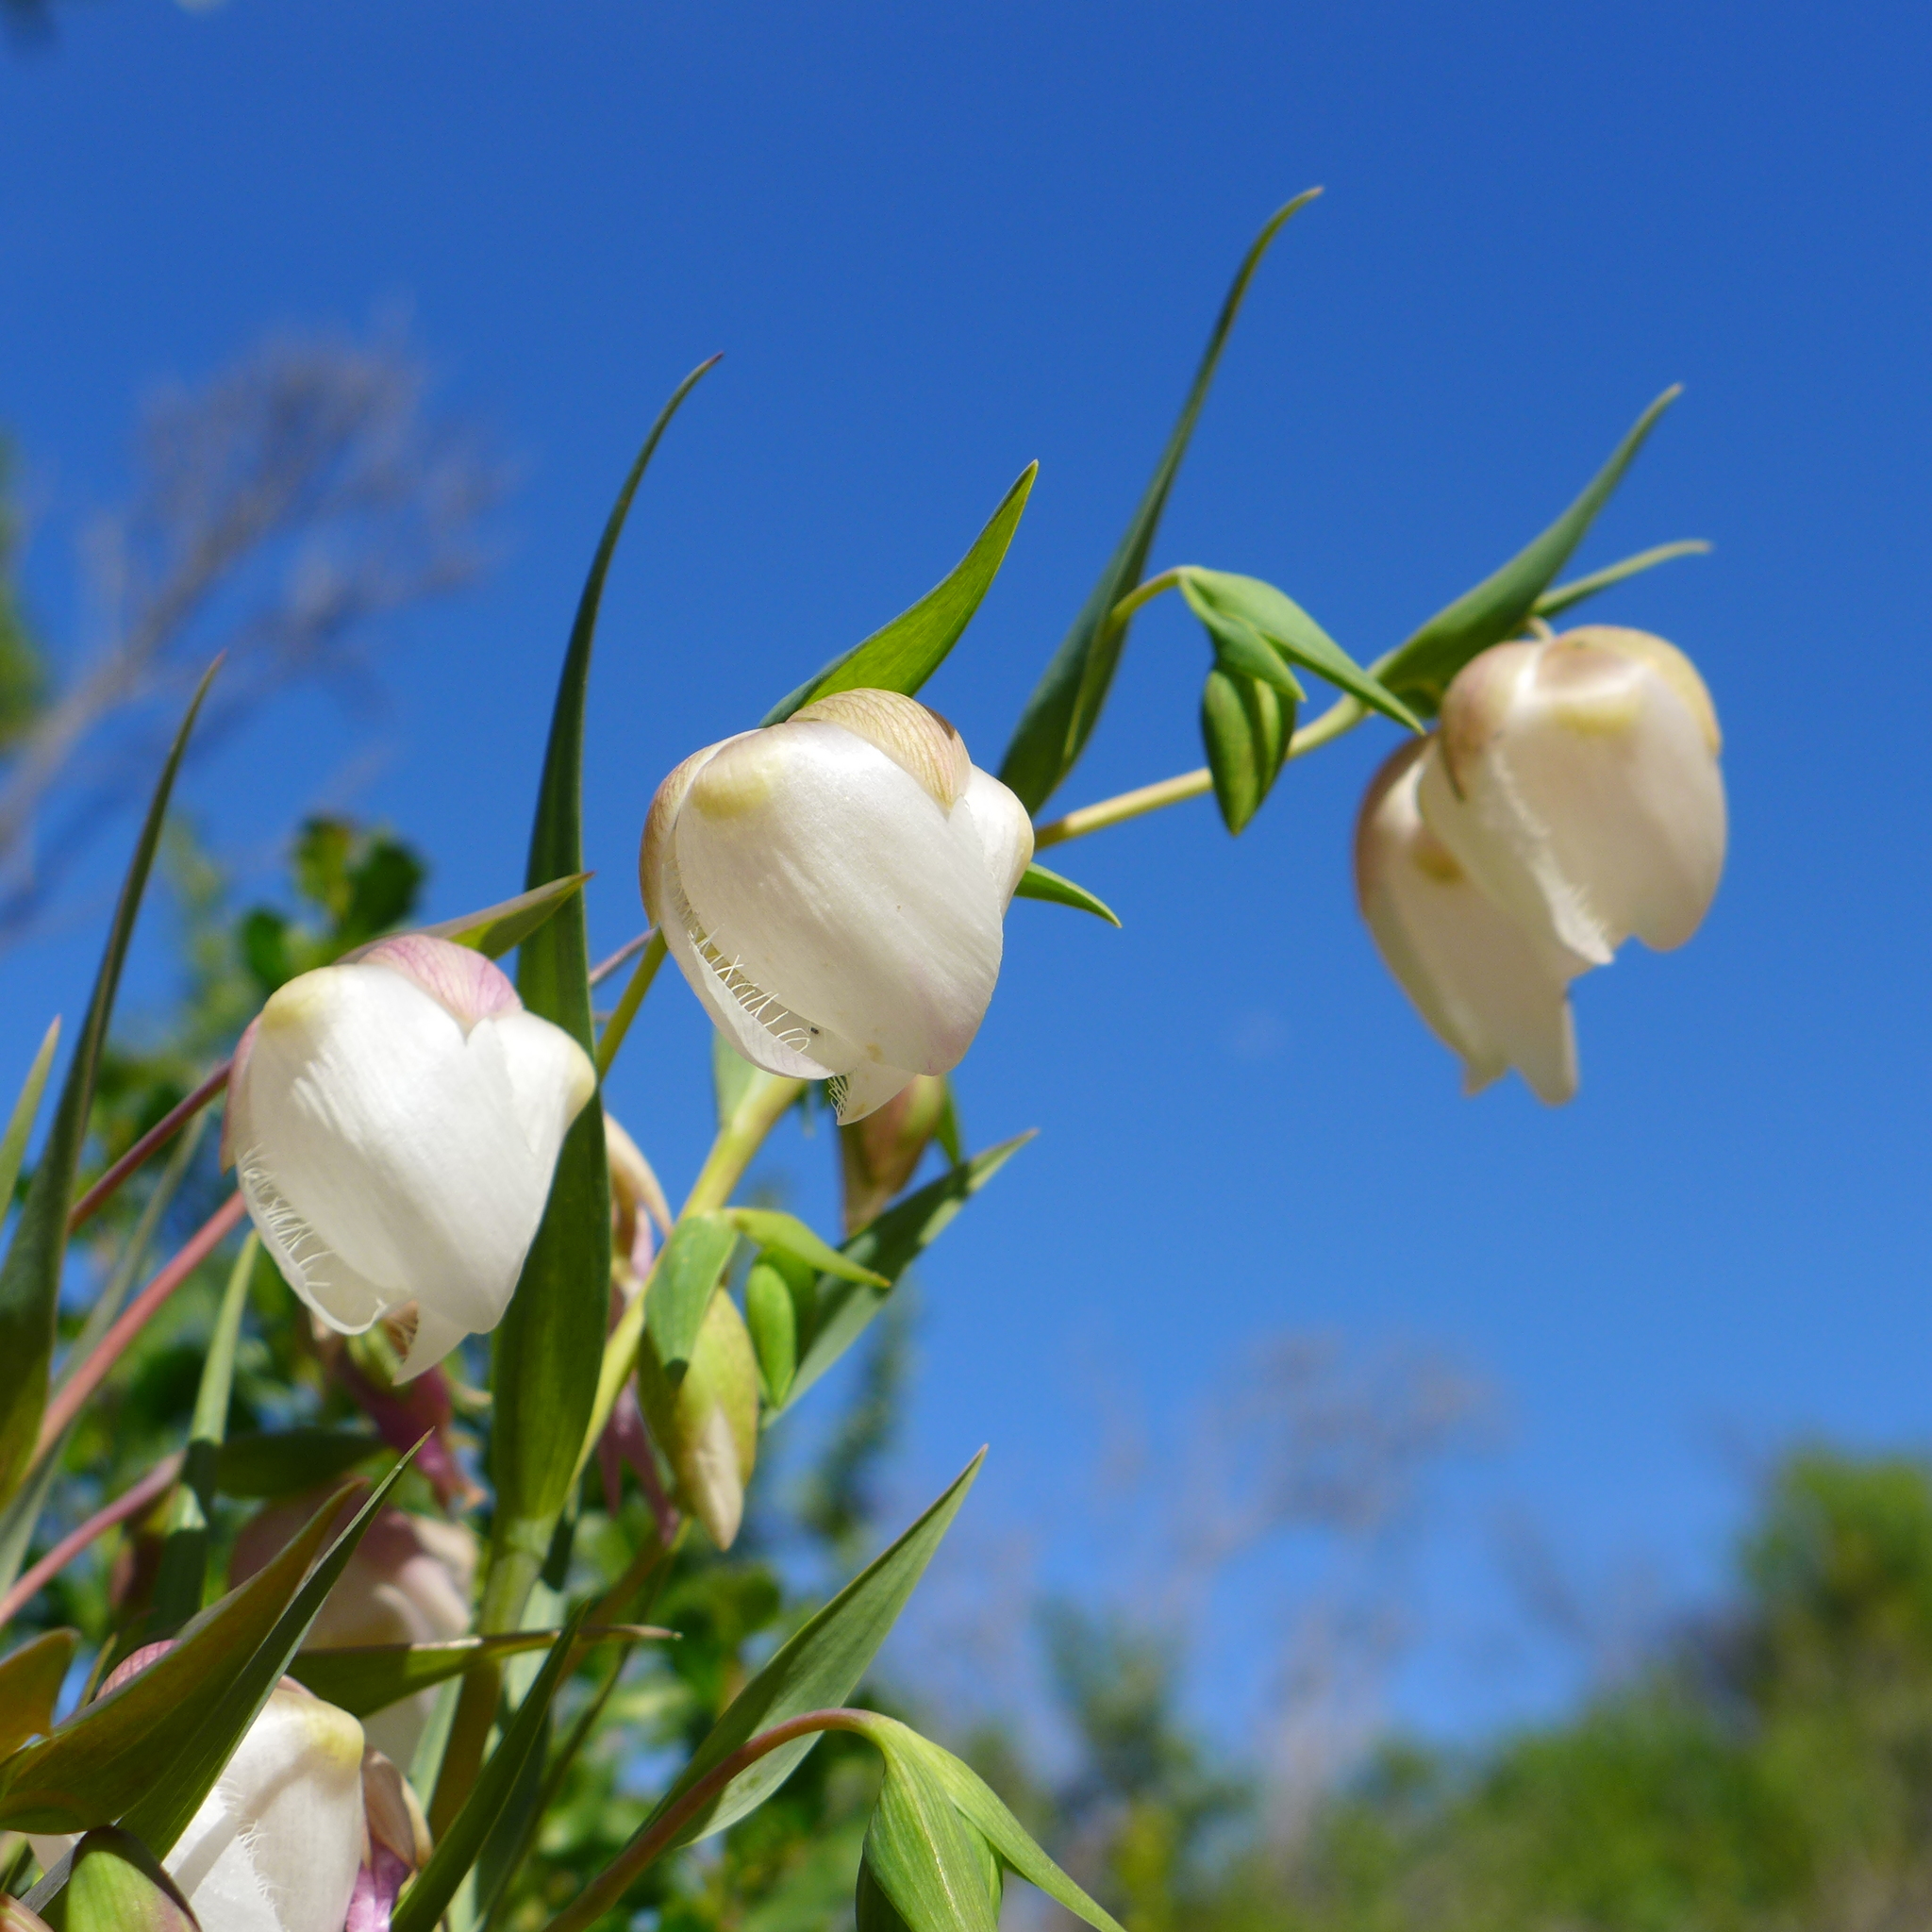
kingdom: Plantae
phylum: Tracheophyta
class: Liliopsida
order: Liliales
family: Liliaceae
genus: Calochortus
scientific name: Calochortus albus
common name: Fairy-lantern
